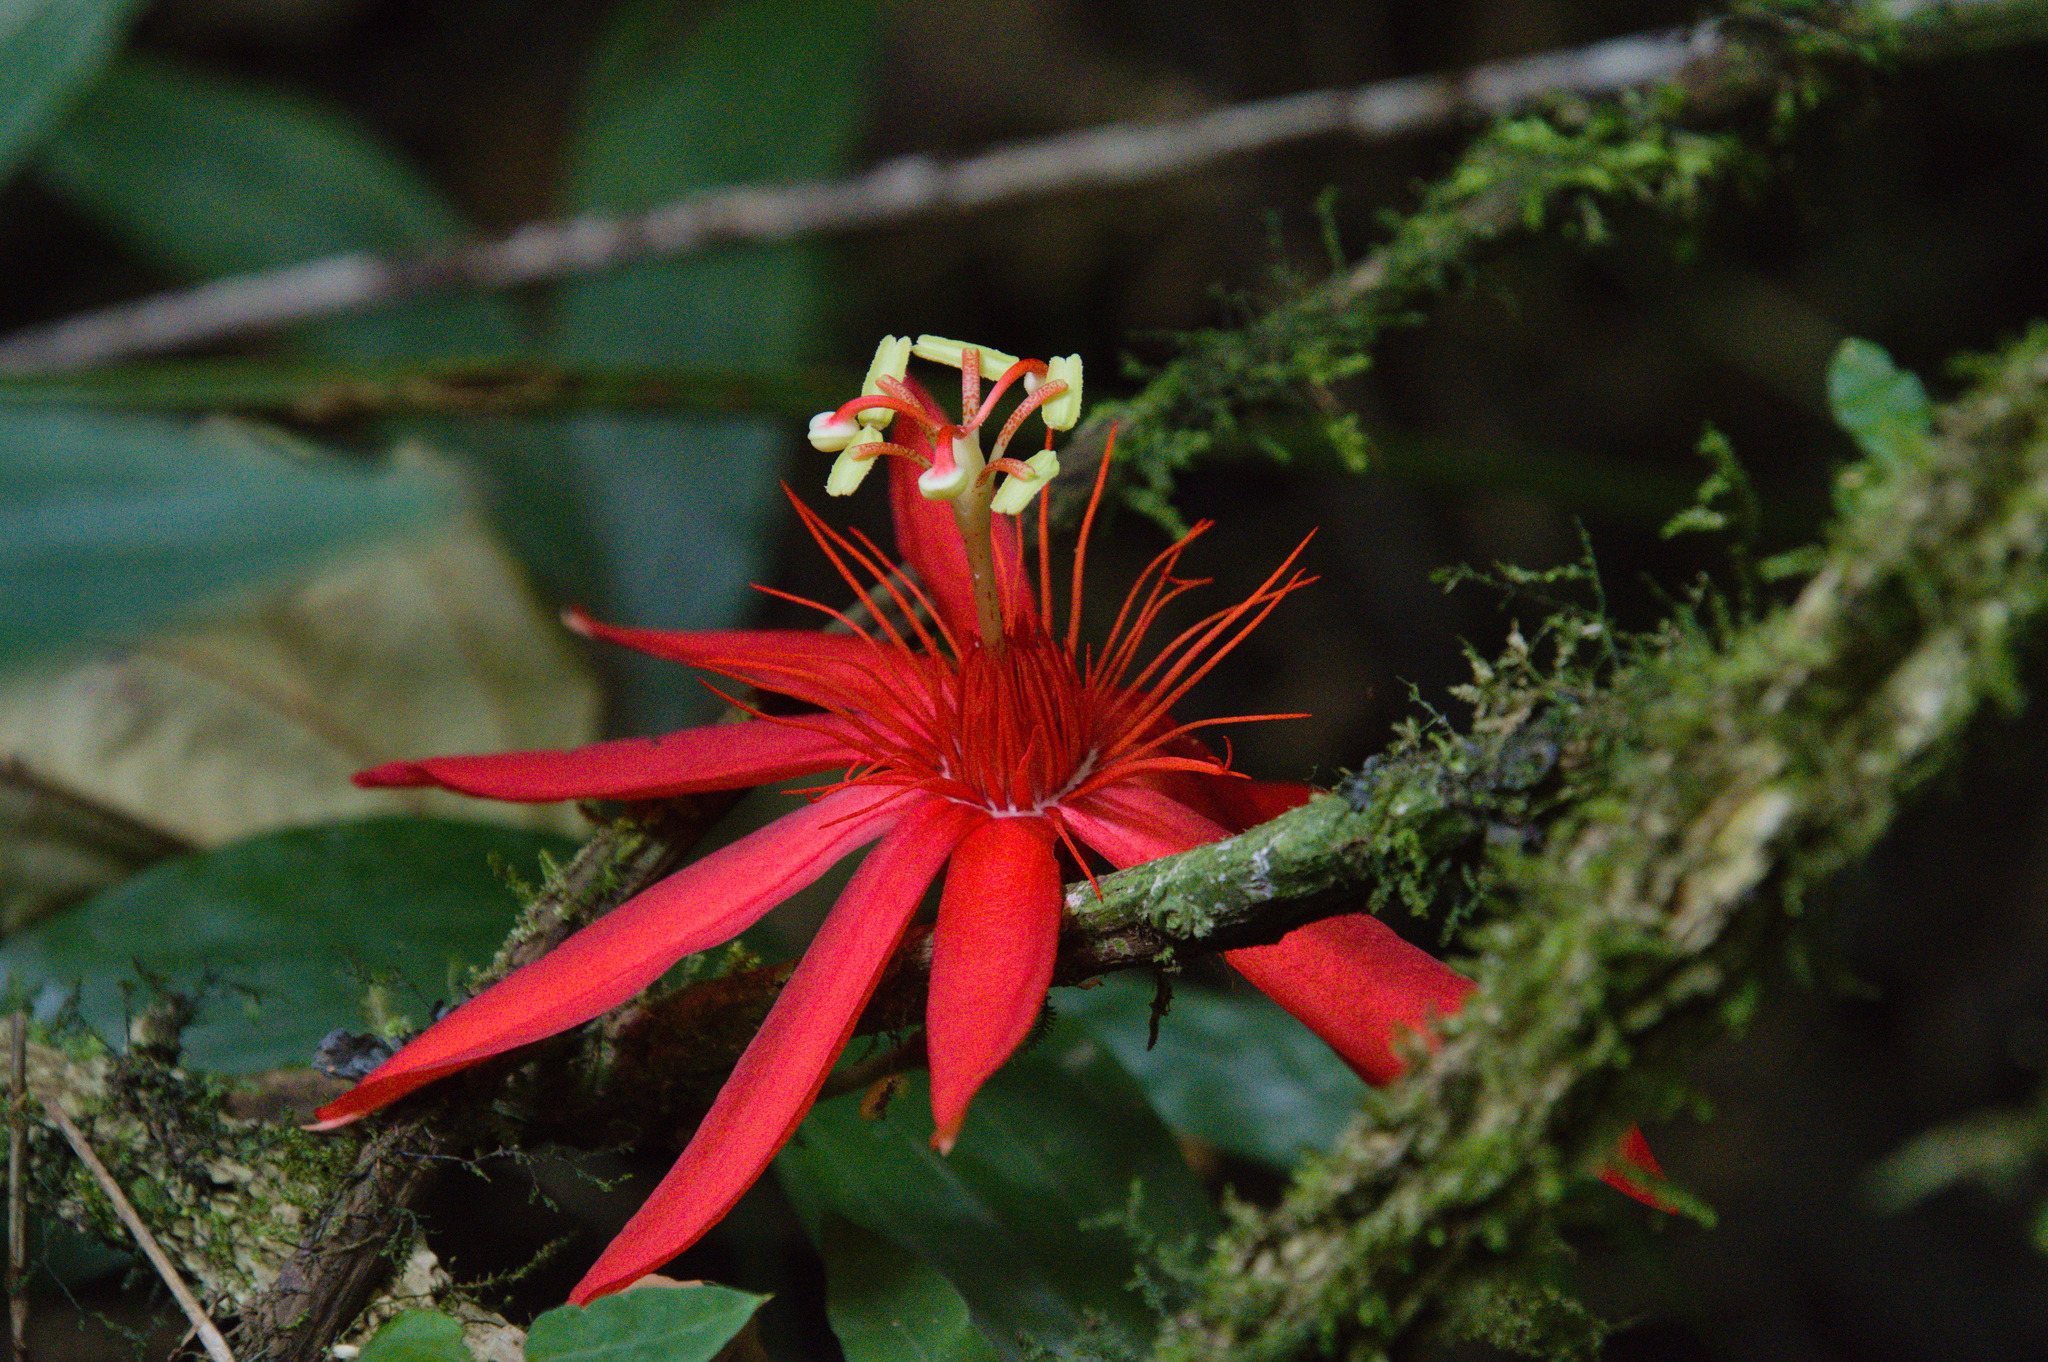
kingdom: Plantae
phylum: Tracheophyta
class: Magnoliopsida
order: Malpighiales
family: Passifloraceae
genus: Passiflora
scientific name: Passiflora vitifolia
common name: Perfumed passionflower
